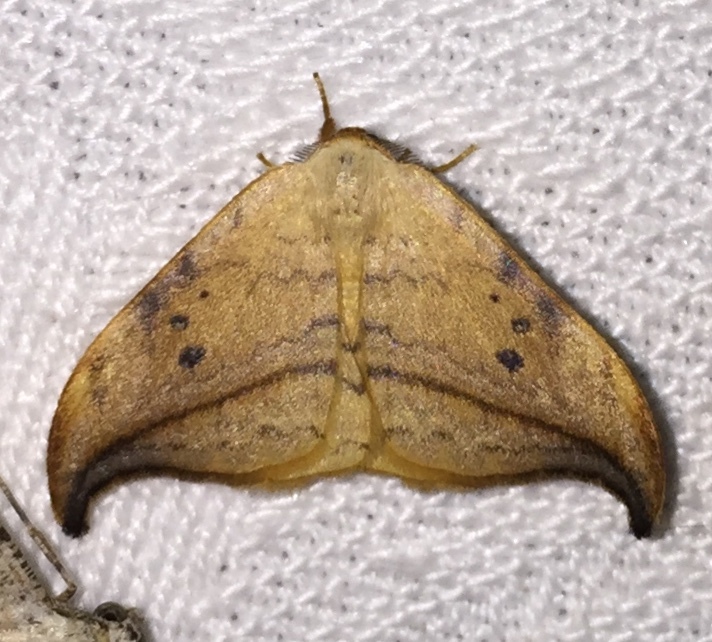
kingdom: Animalia
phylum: Arthropoda
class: Insecta
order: Lepidoptera
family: Drepanidae
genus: Drepana
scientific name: Drepana arcuata
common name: Arched hooktip moth
